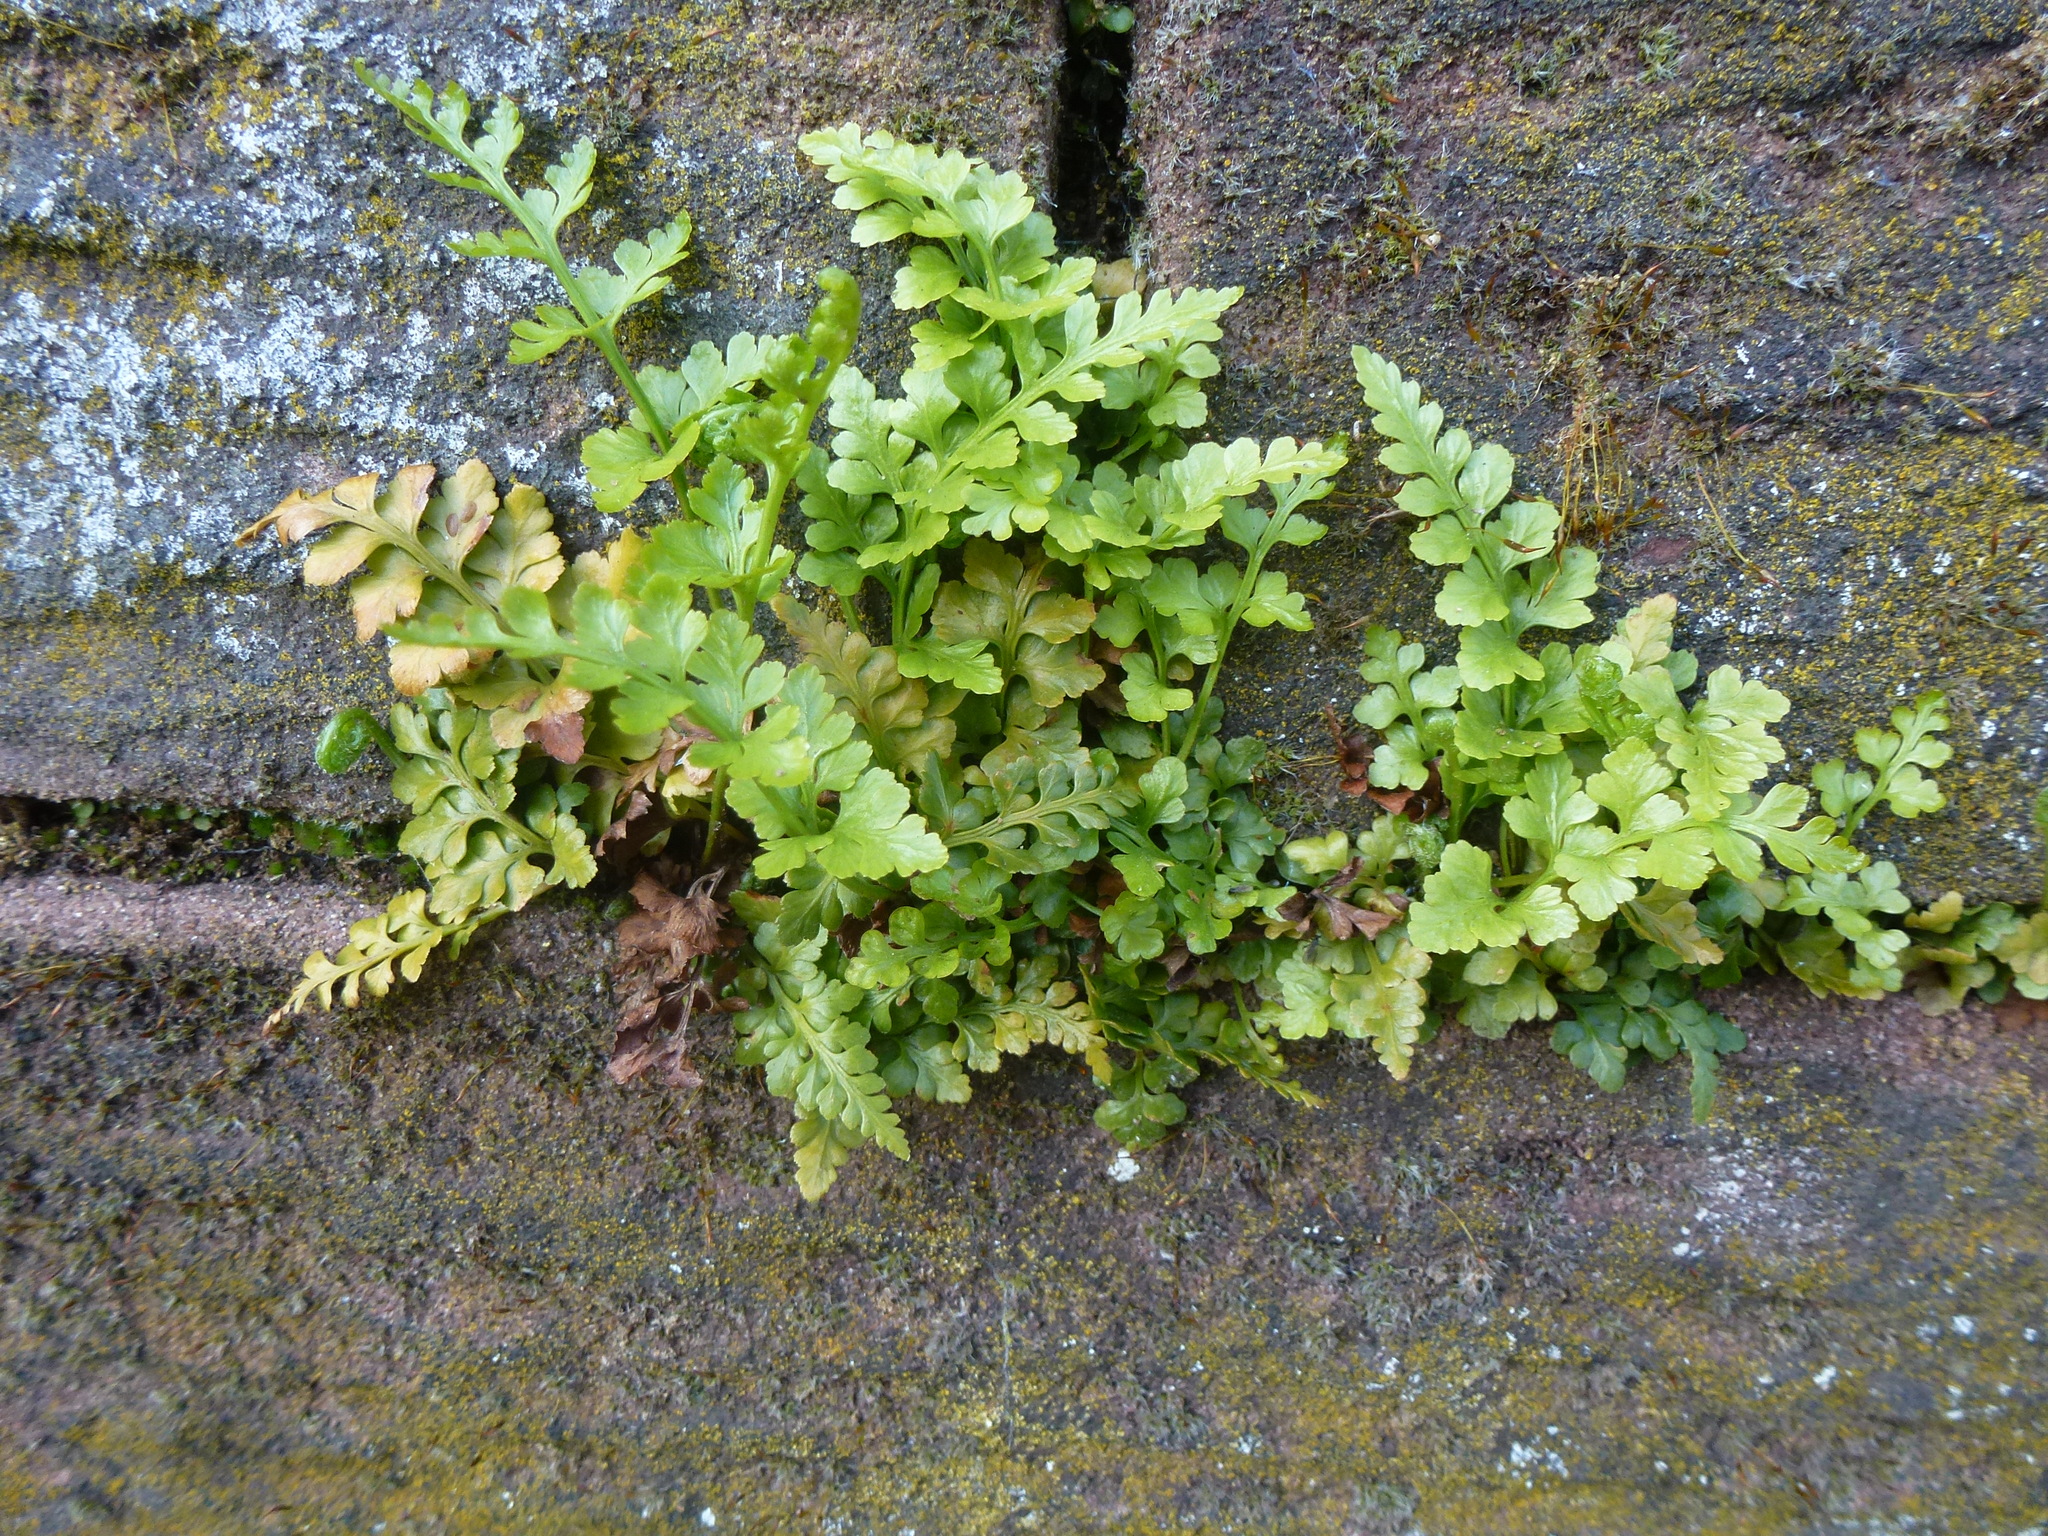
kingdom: Plantae
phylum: Tracheophyta
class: Polypodiopsida
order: Polypodiales
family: Aspleniaceae
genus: Asplenium
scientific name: Asplenium adiantum-nigrum
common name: Black spleenwort
